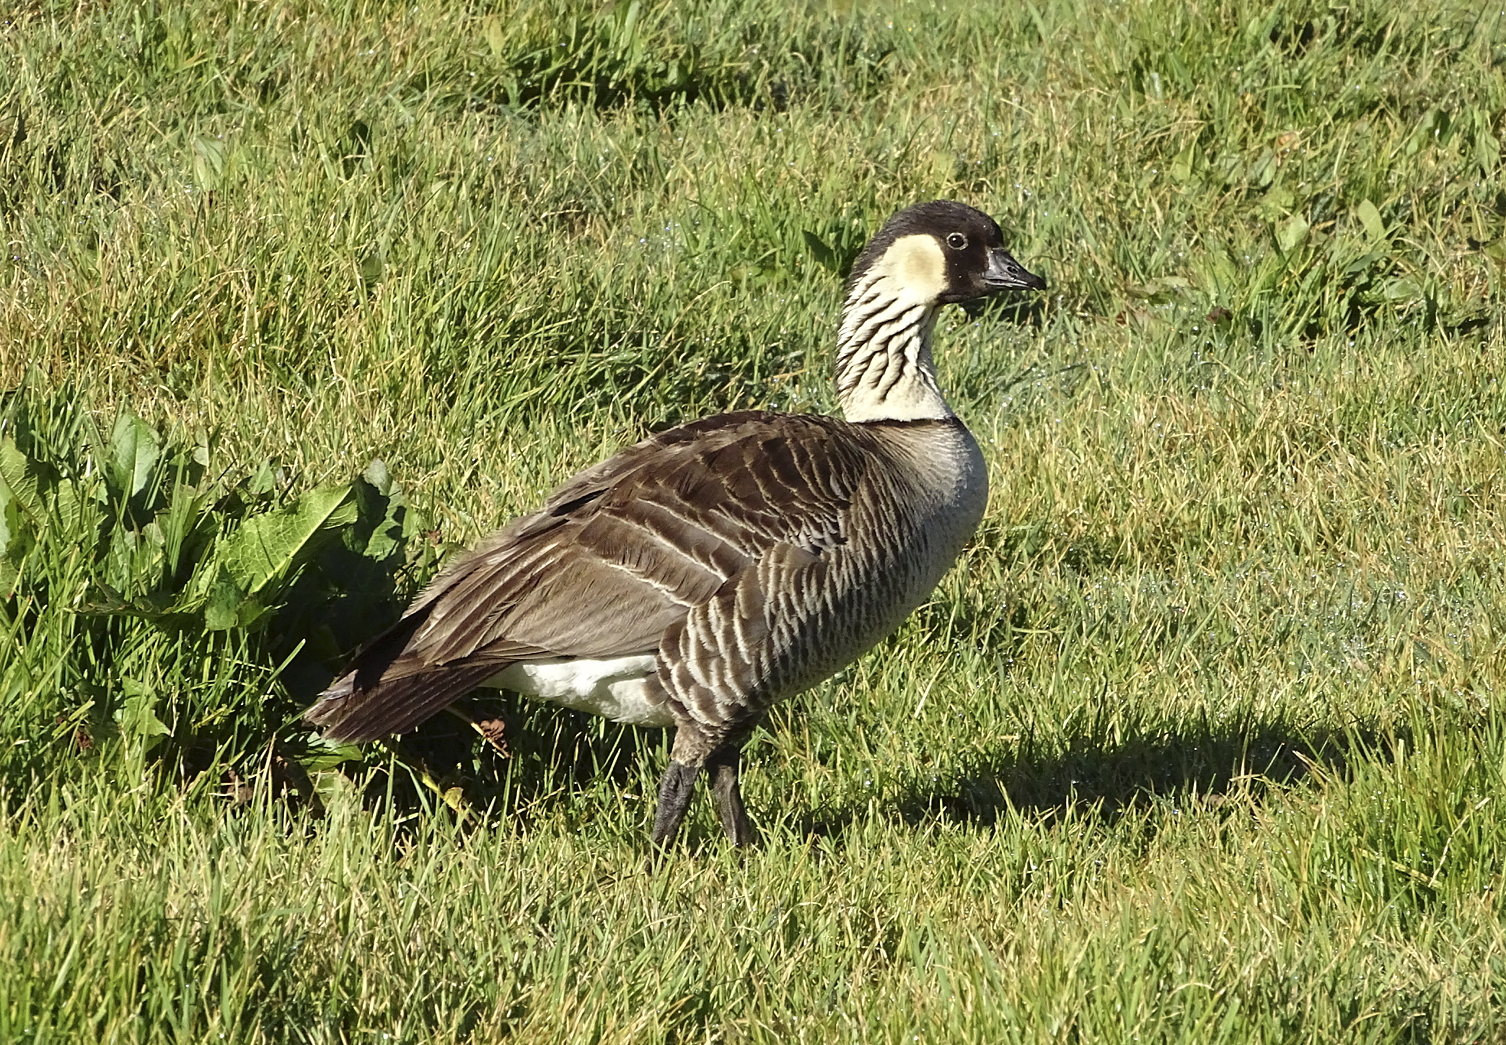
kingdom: Animalia
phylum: Chordata
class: Aves
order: Anseriformes
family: Anatidae
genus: Branta
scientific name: Branta sandvicensis
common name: Nene
